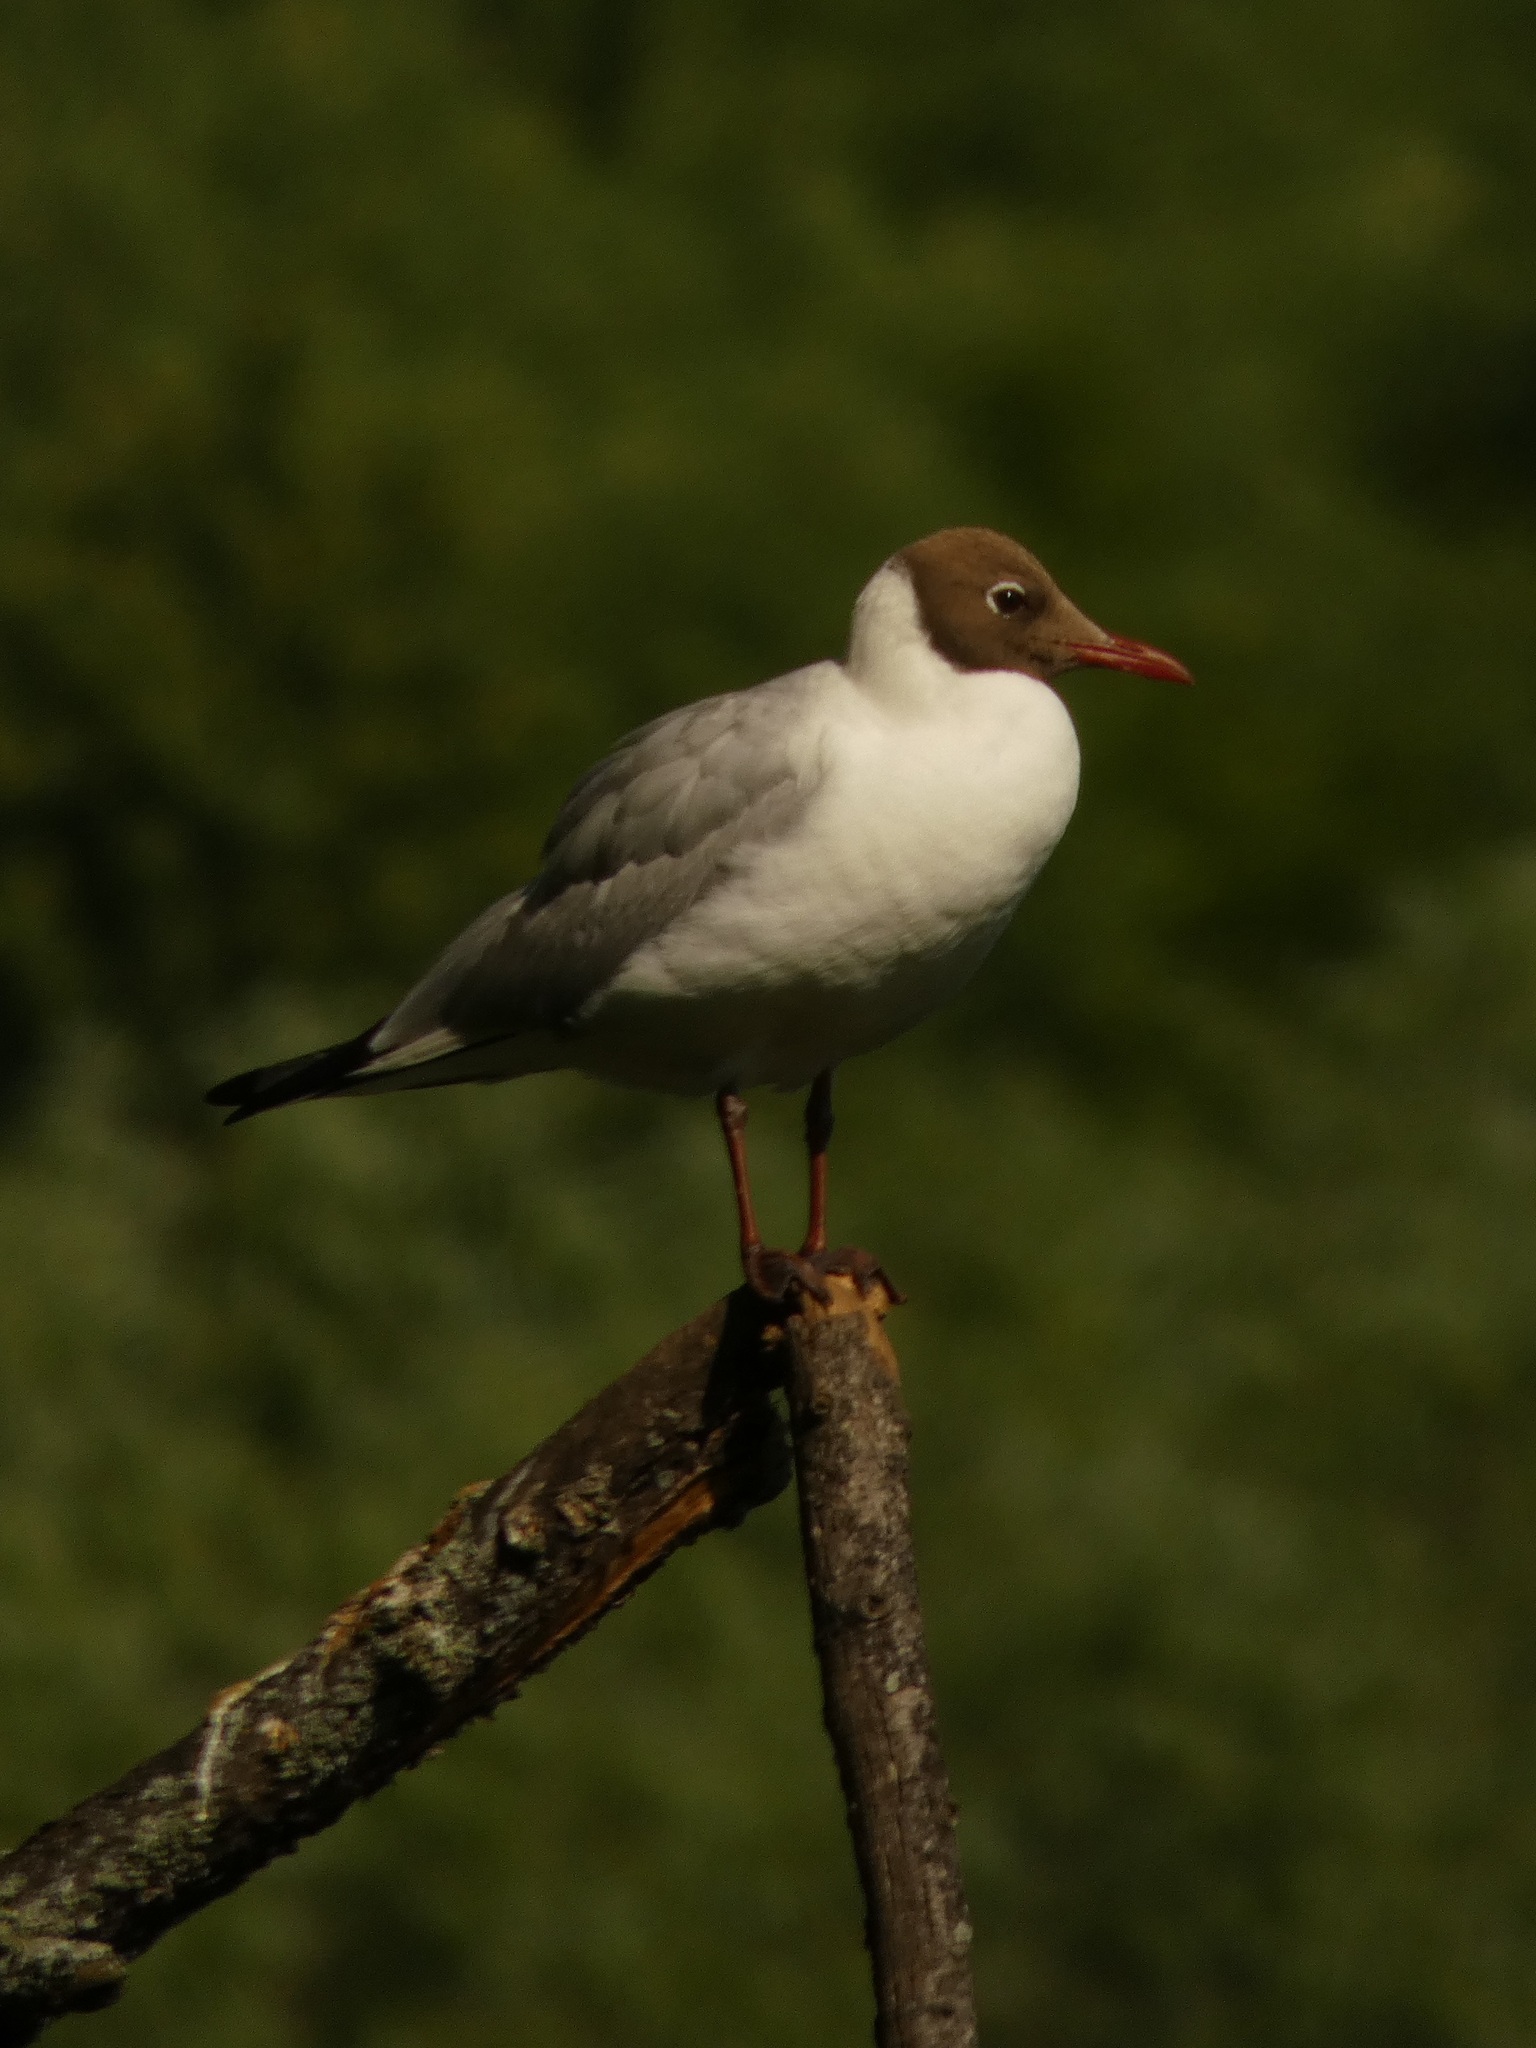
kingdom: Animalia
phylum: Chordata
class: Aves
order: Charadriiformes
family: Laridae
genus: Chroicocephalus
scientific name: Chroicocephalus ridibundus
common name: Black-headed gull
